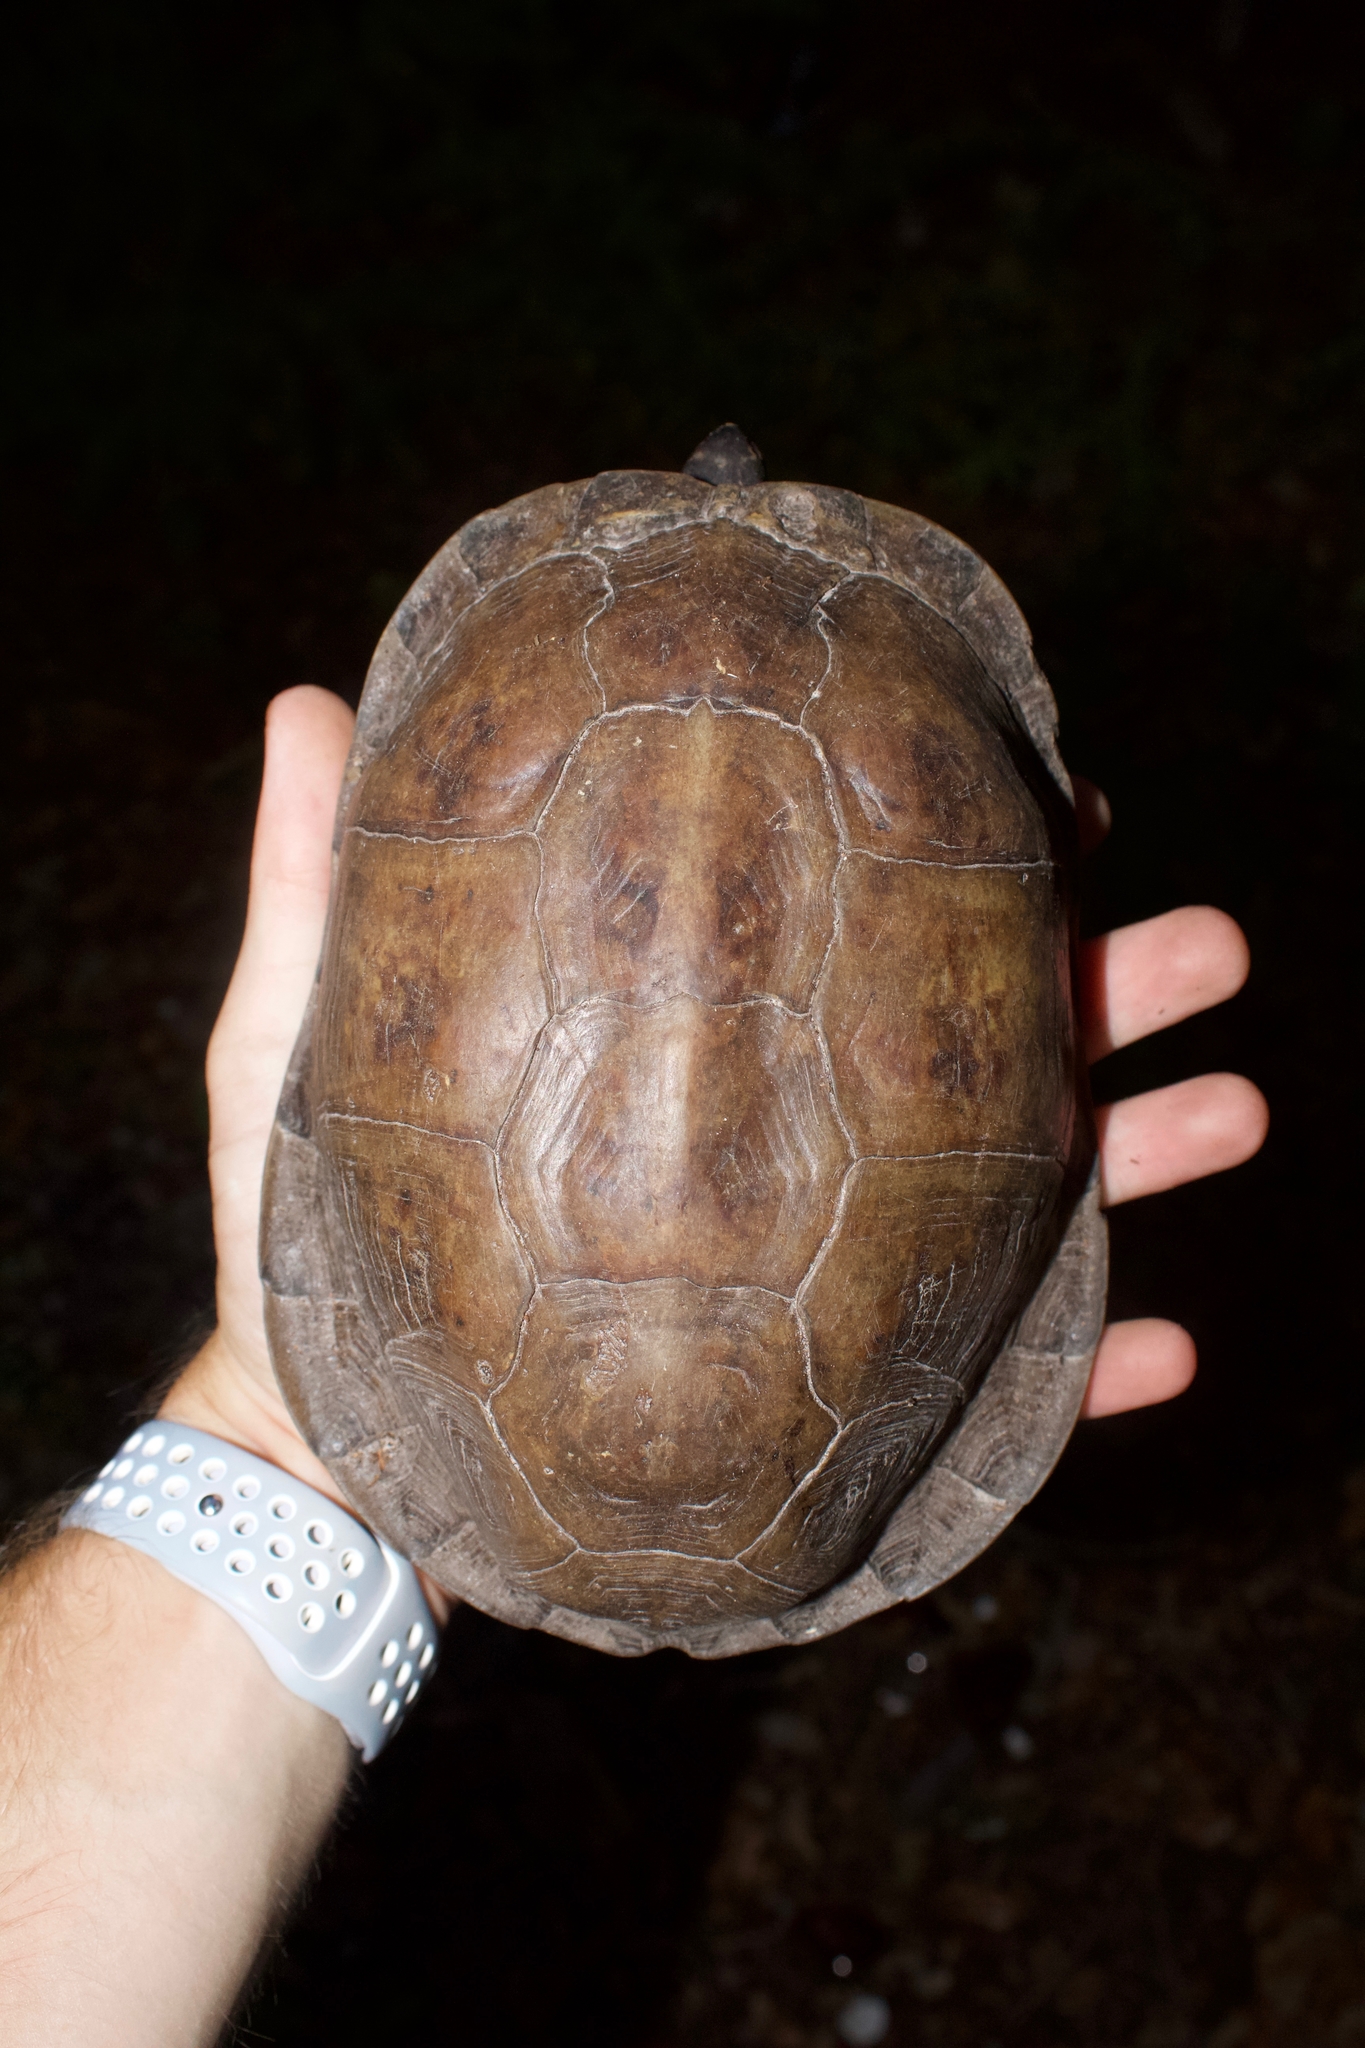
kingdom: Animalia
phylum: Chordata
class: Testudines
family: Emydidae
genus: Terrapene
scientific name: Terrapene carolina
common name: Common box turtle
